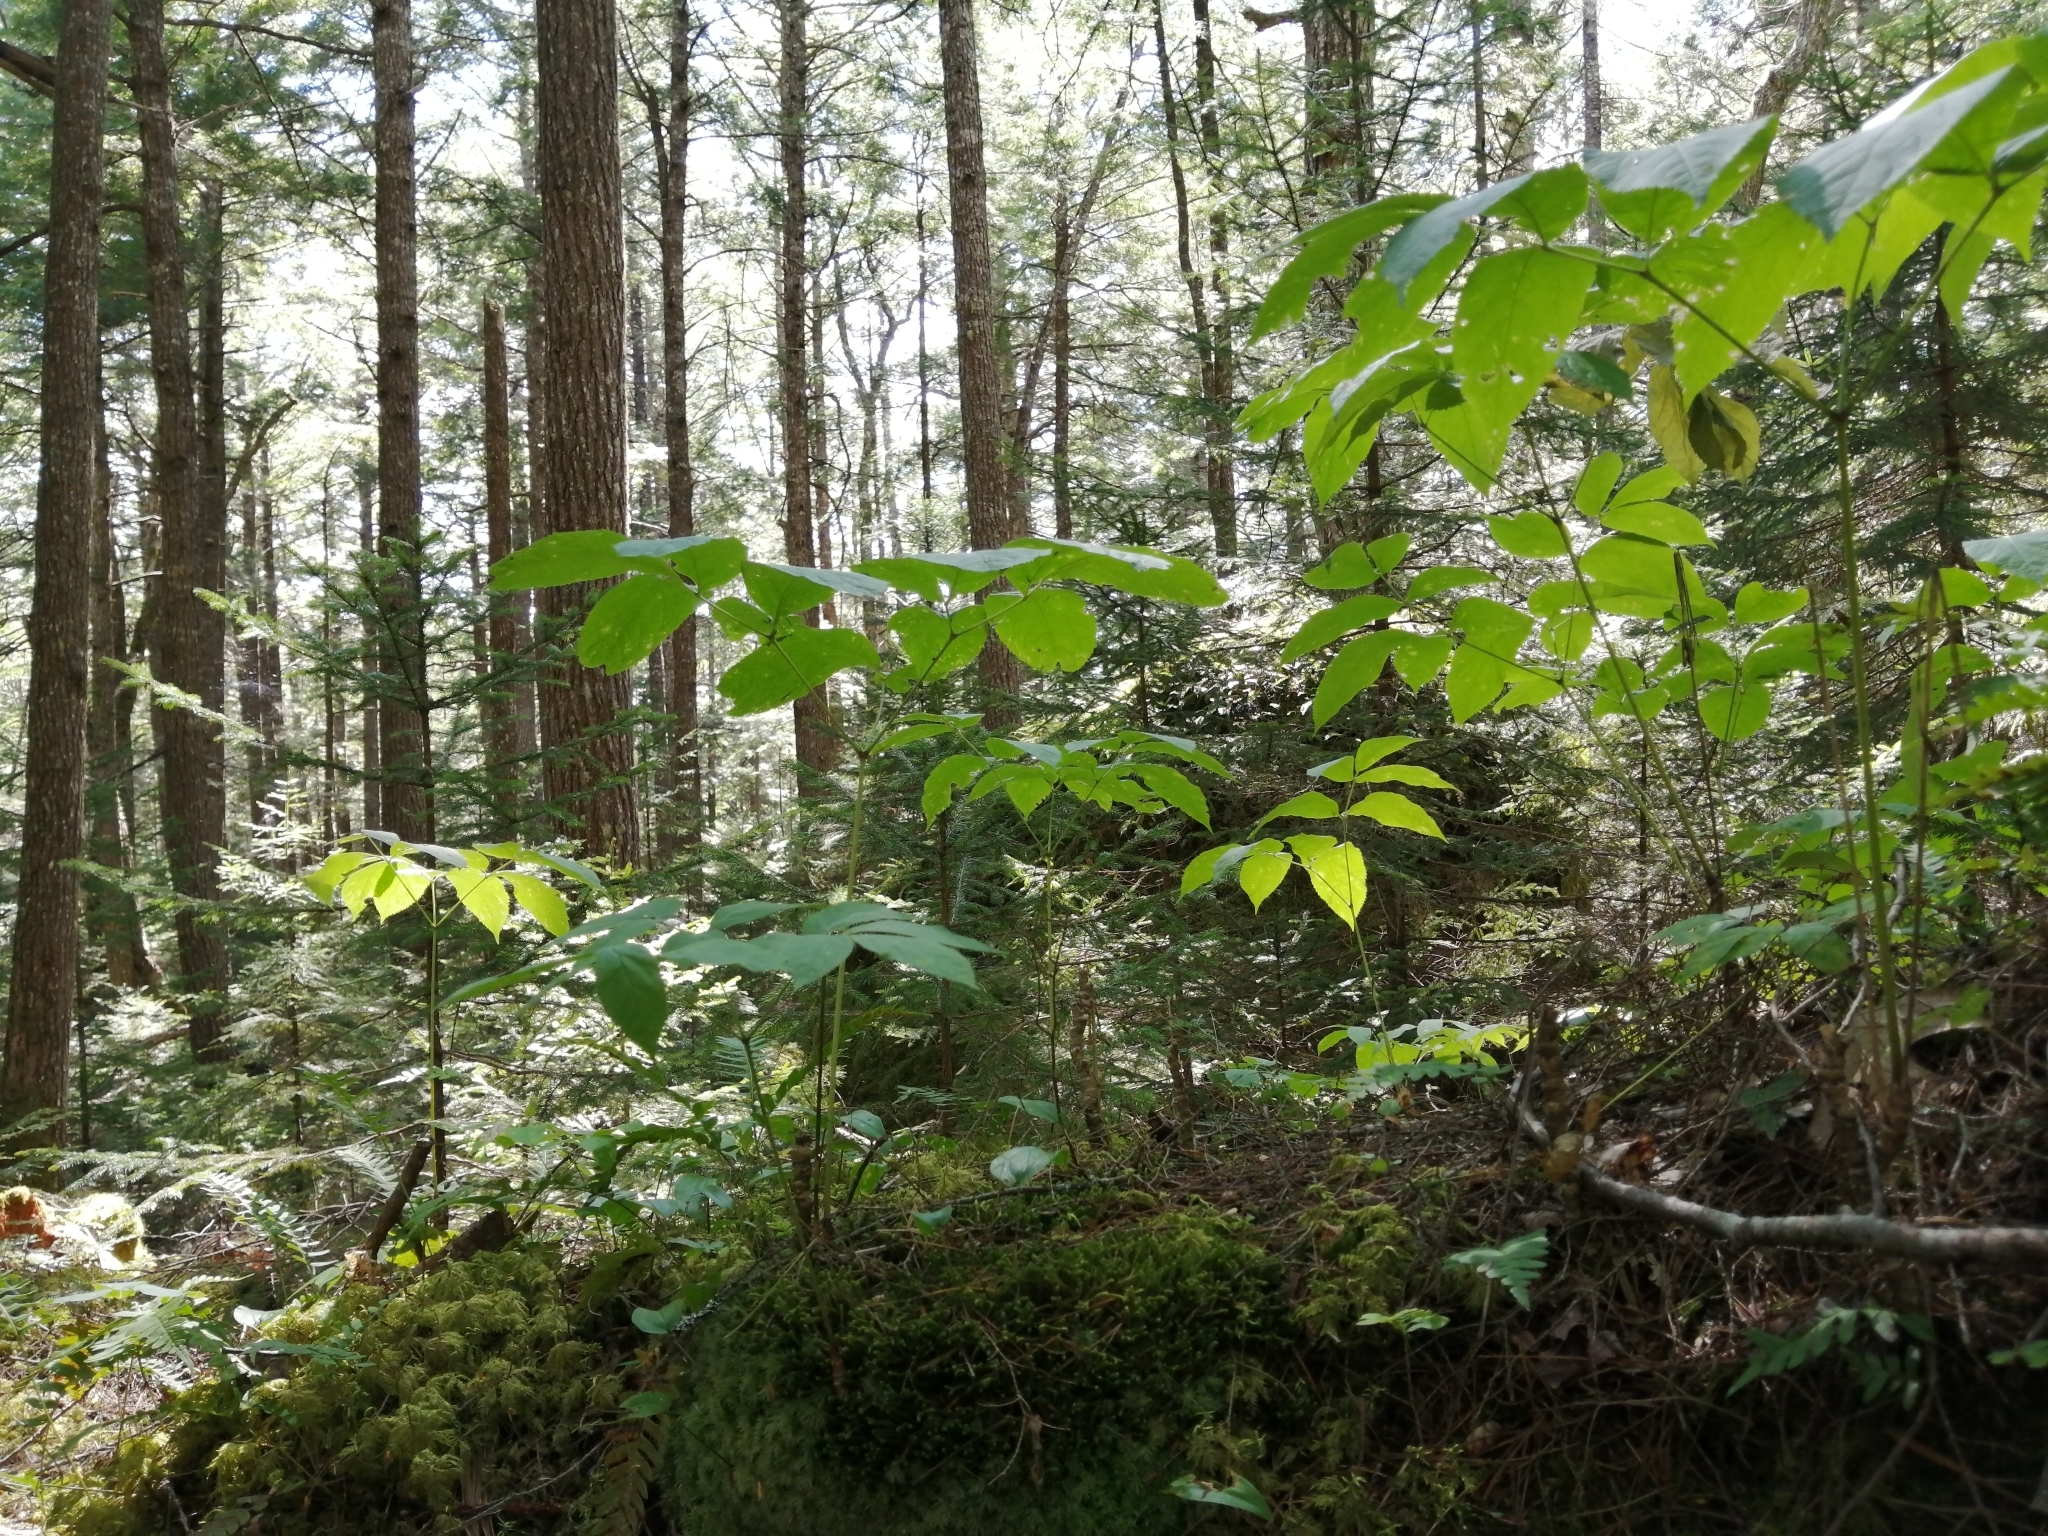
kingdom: Plantae
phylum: Tracheophyta
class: Magnoliopsida
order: Apiales
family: Araliaceae
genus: Aralia
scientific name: Aralia nudicaulis
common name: Wild sarsaparilla
